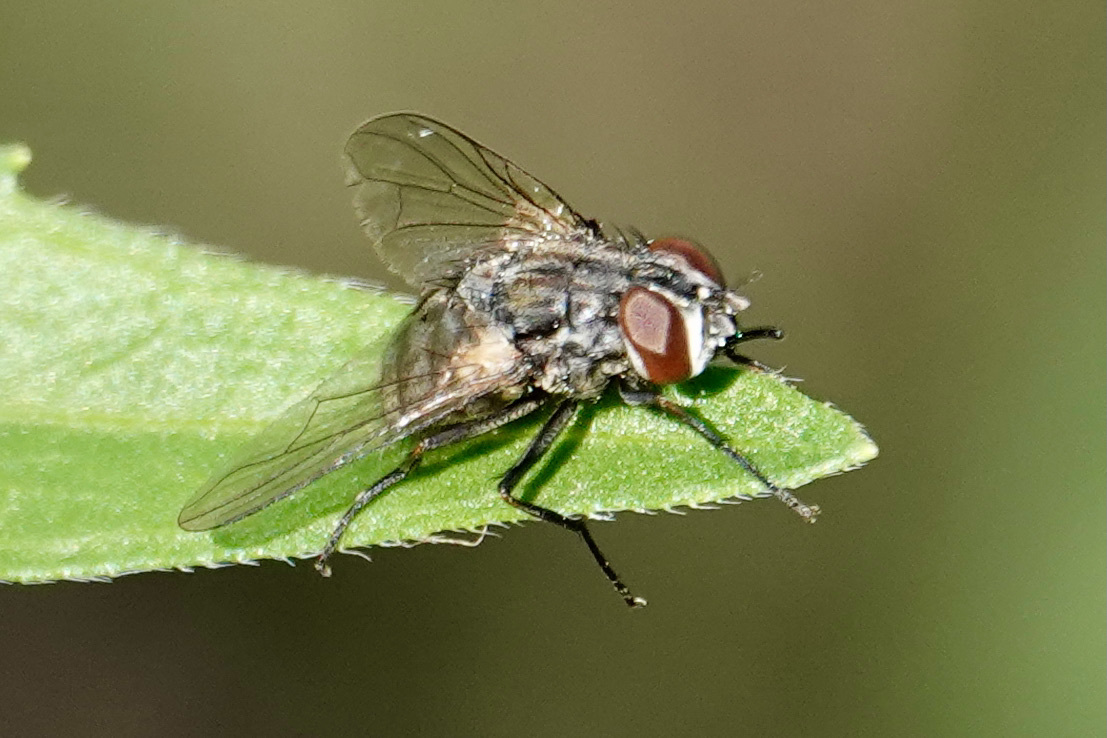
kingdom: Animalia
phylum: Arthropoda
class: Insecta
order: Diptera
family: Muscidae
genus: Stomoxys
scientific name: Stomoxys calcitrans
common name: Stable fly
